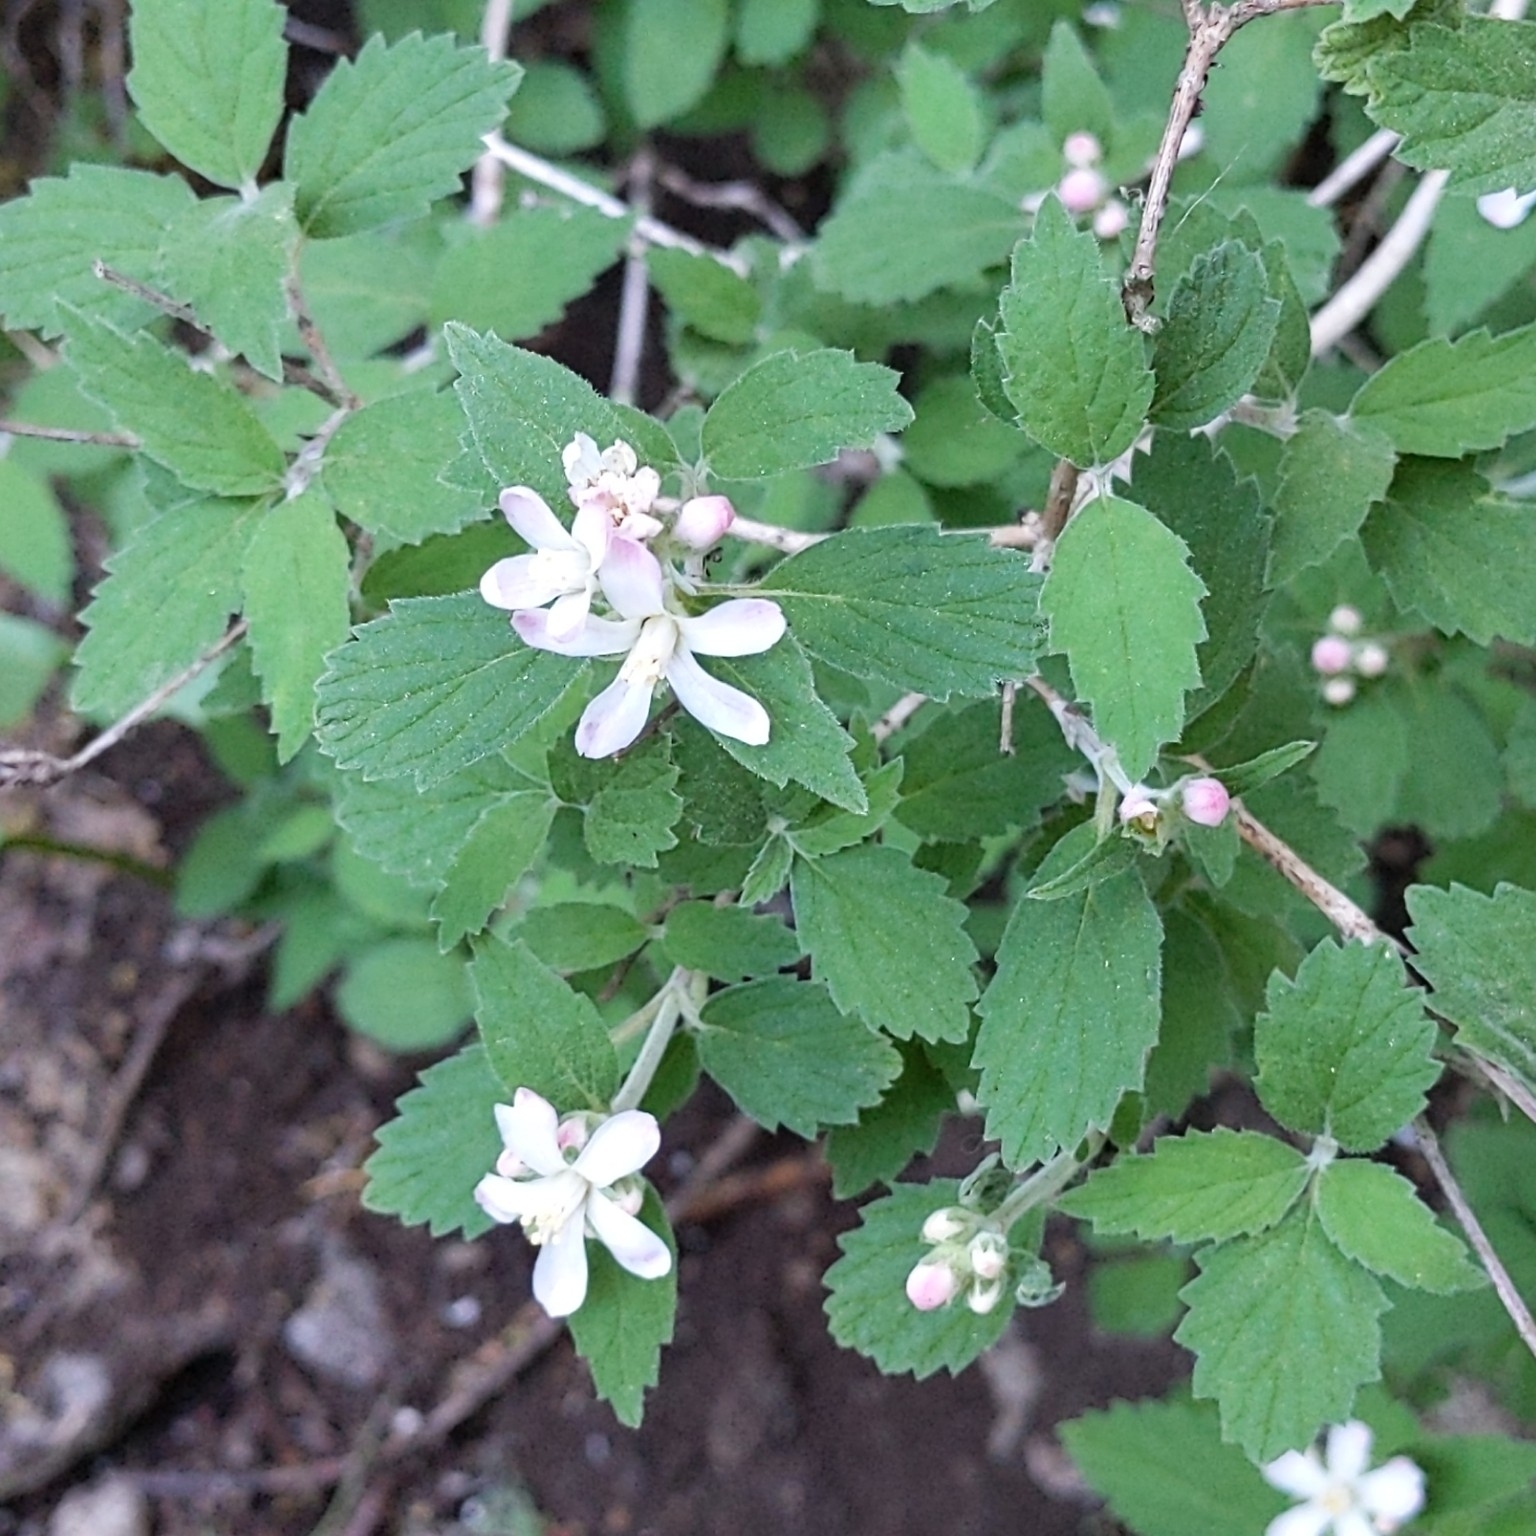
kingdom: Plantae
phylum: Tracheophyta
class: Magnoliopsida
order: Cornales
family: Hydrangeaceae
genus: Jamesia
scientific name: Jamesia americana
